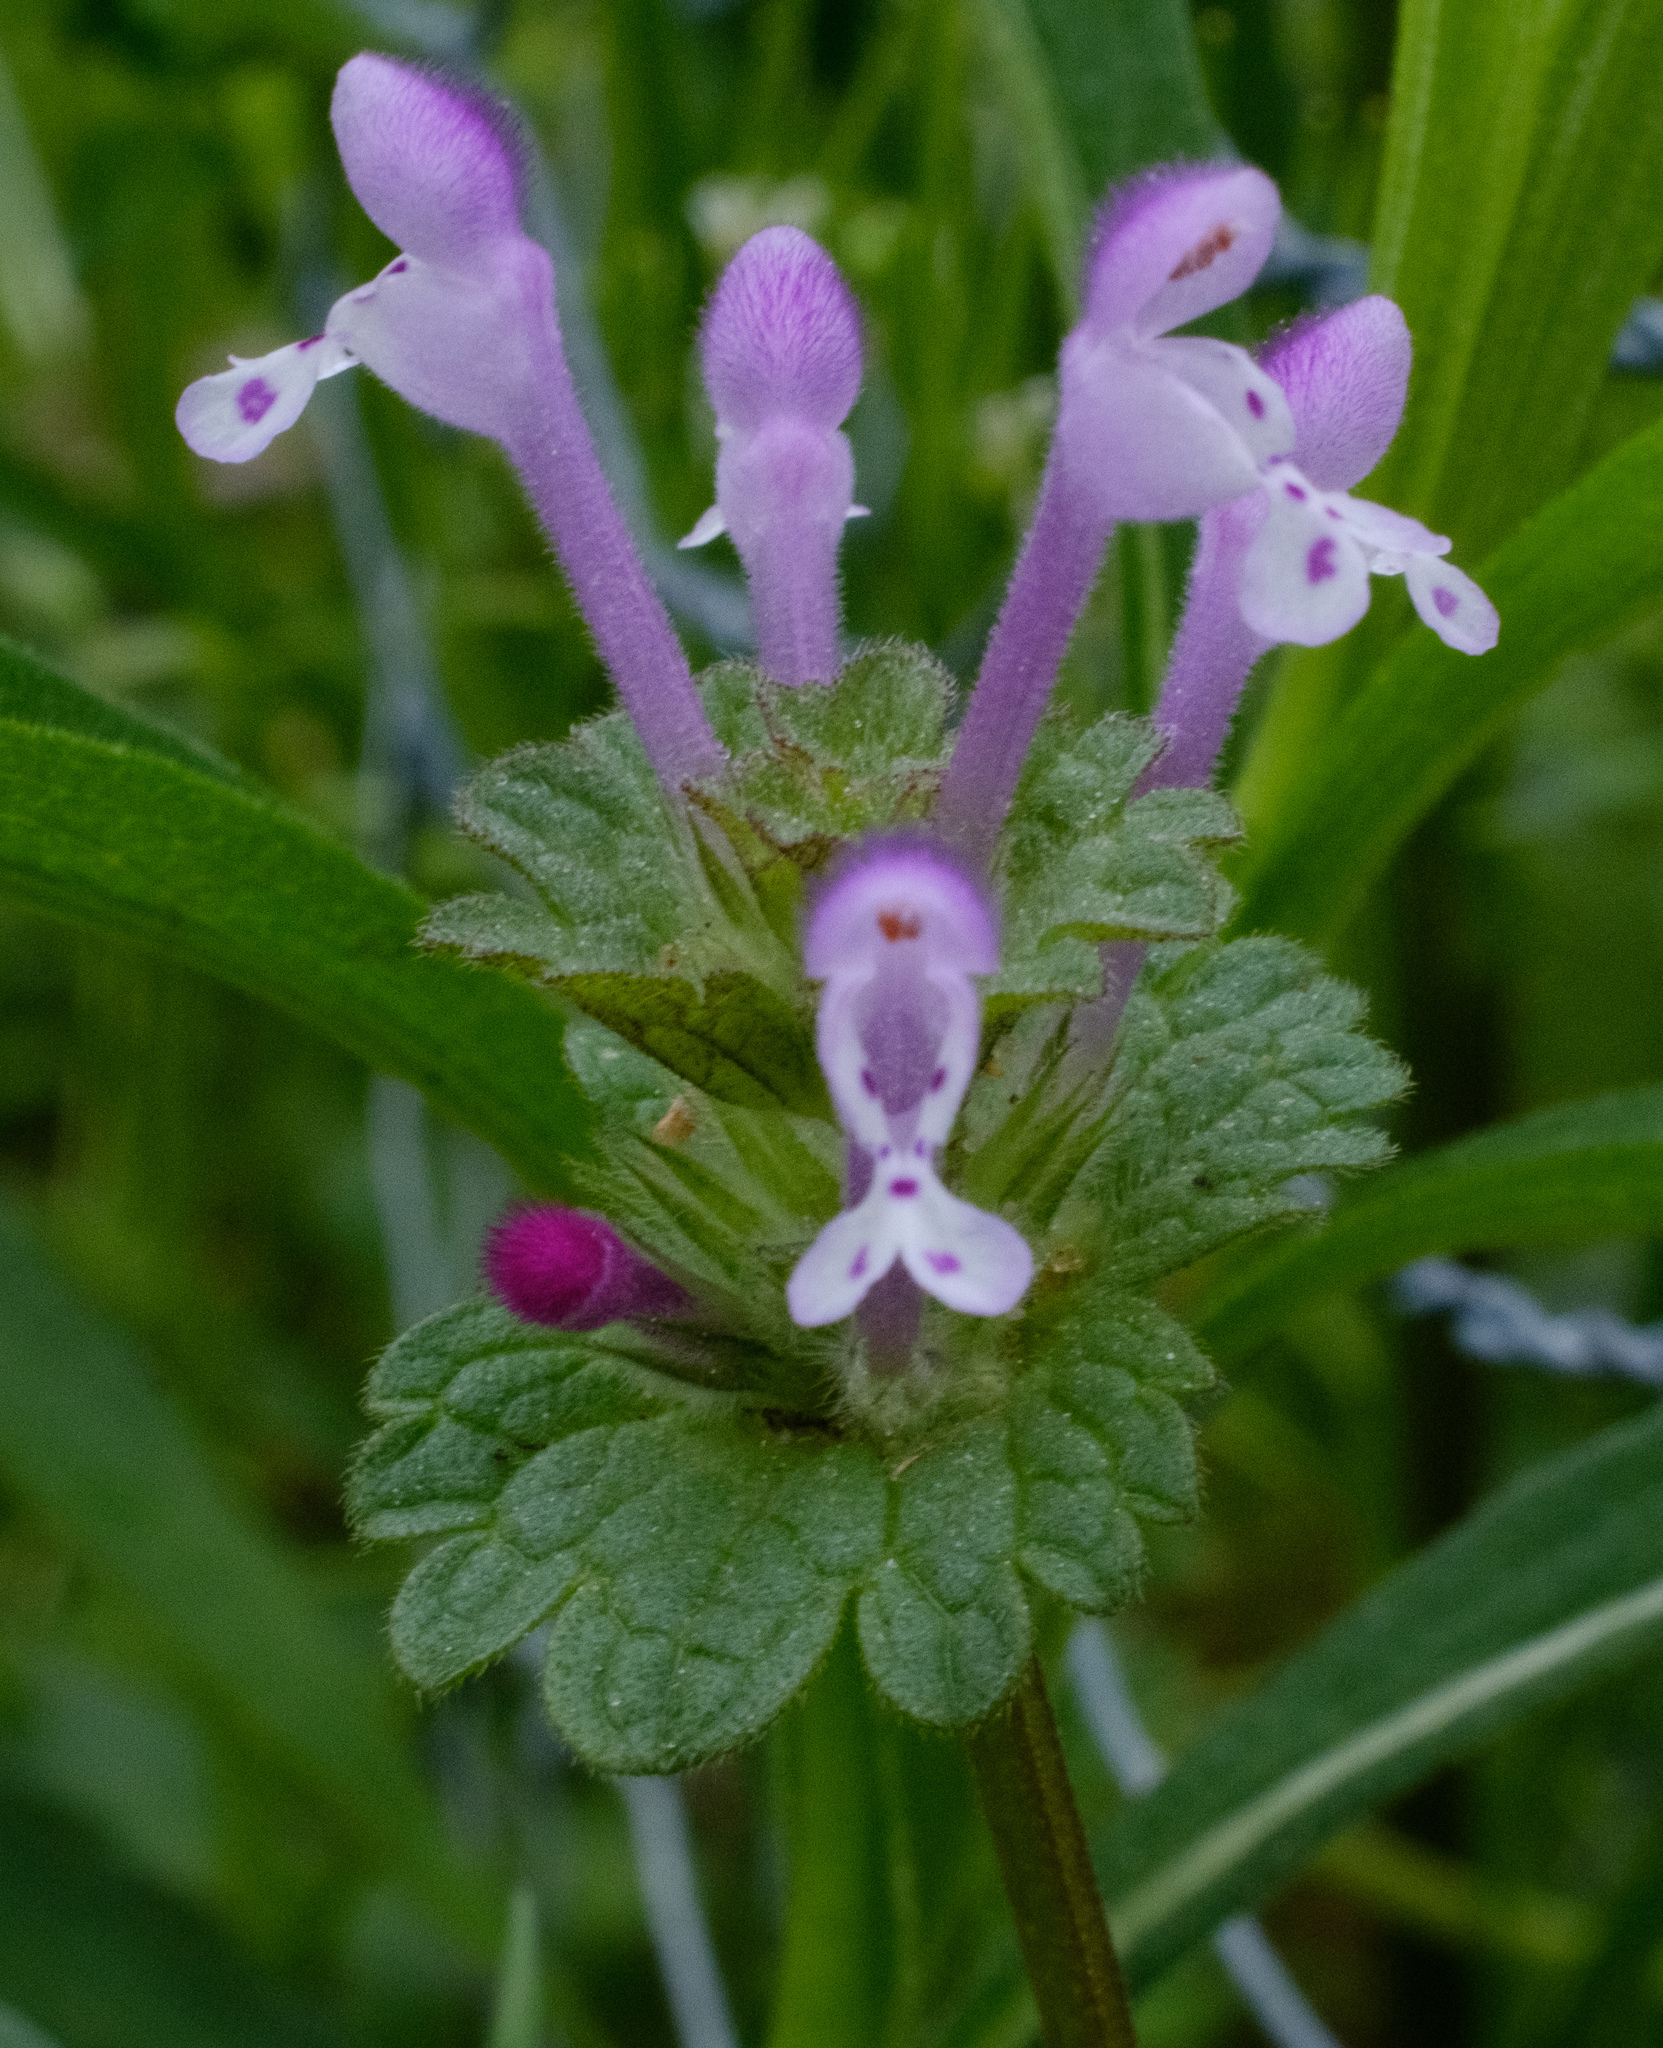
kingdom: Plantae
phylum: Tracheophyta
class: Magnoliopsida
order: Lamiales
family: Lamiaceae
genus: Lamium
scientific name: Lamium amplexicaule
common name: Henbit dead-nettle
